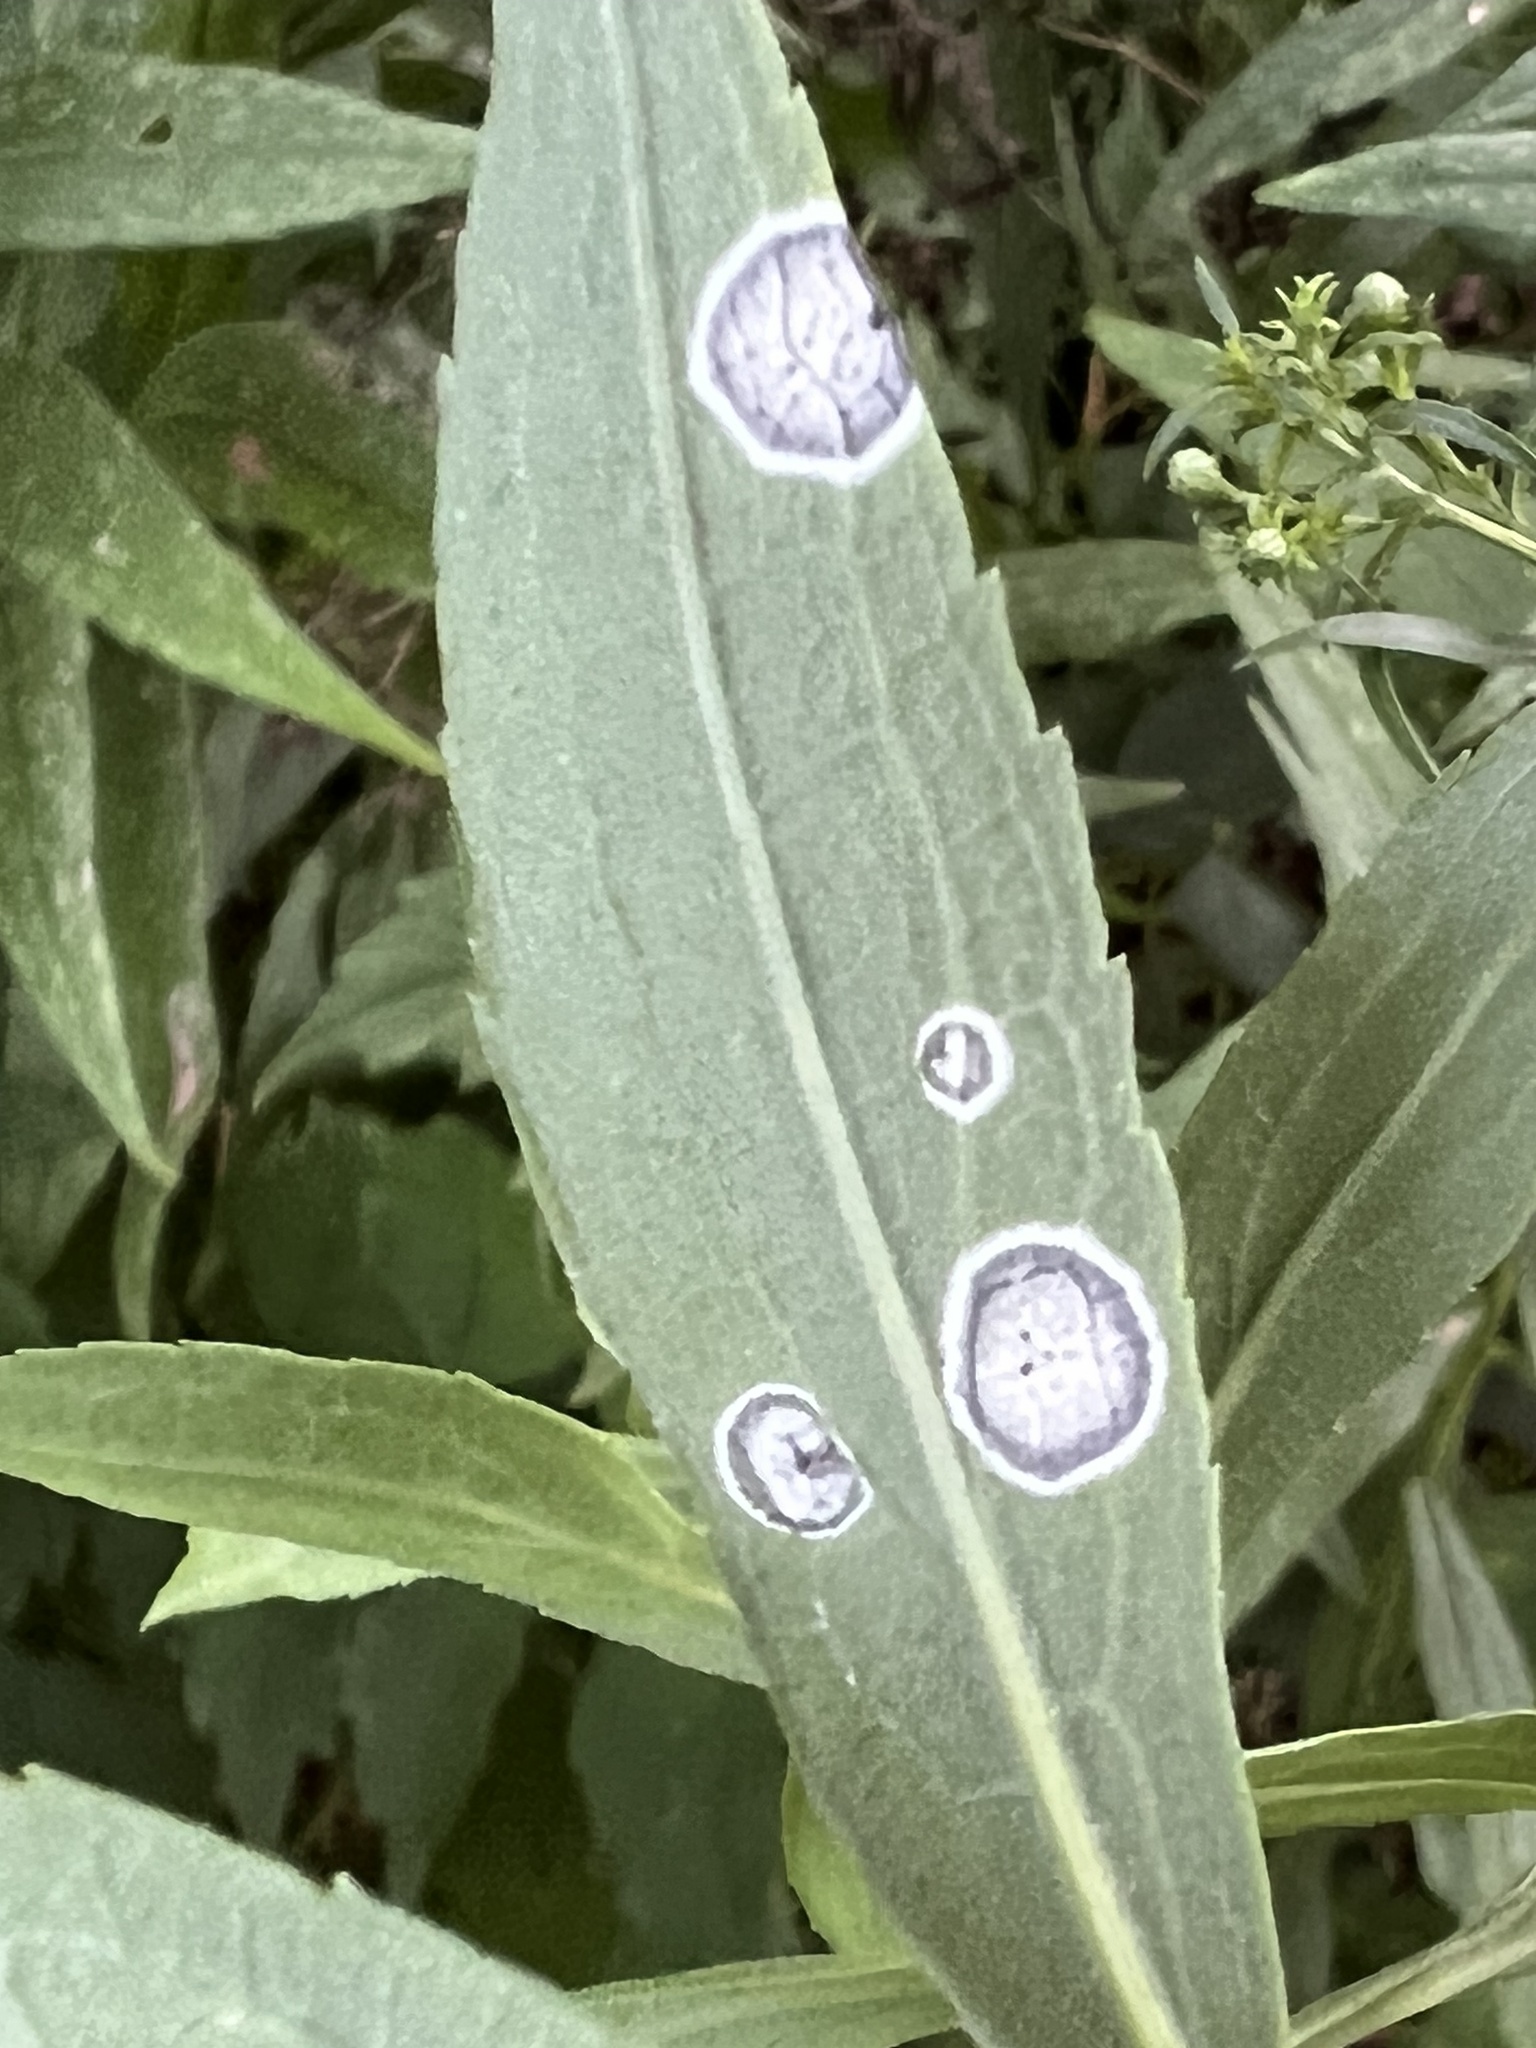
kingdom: Animalia
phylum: Arthropoda
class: Insecta
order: Diptera
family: Cecidomyiidae
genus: Asteromyia
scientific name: Asteromyia carbonifera
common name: Carbonifera goldenrod gall midge
